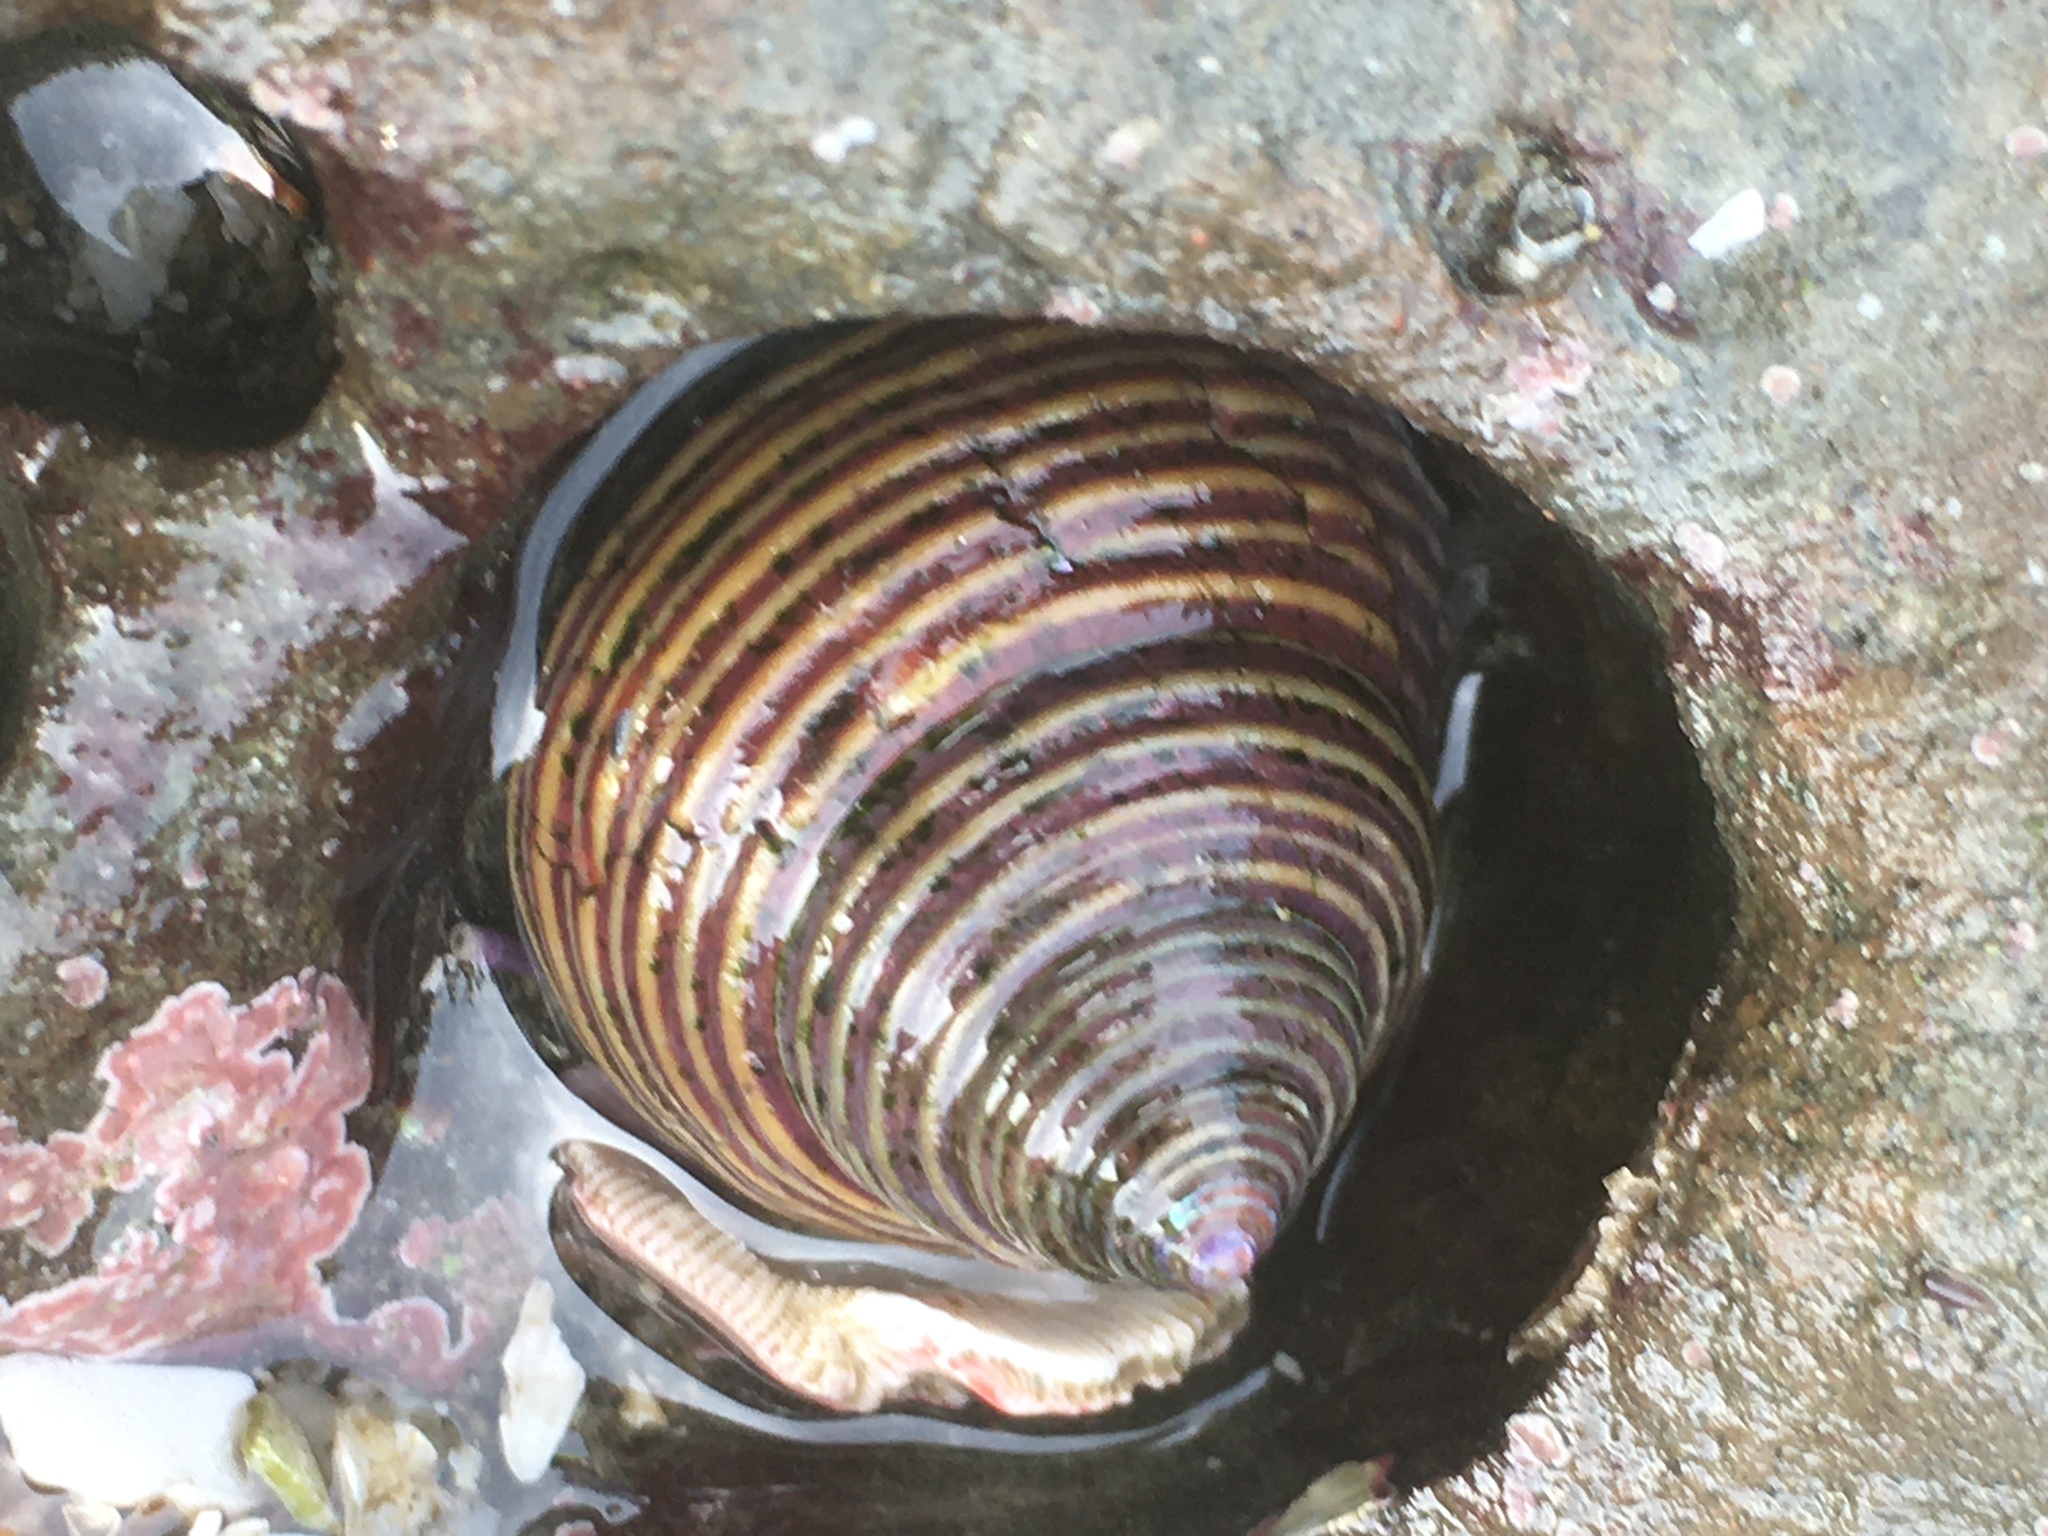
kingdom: Animalia
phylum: Mollusca
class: Gastropoda
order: Trochida
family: Calliostomatidae
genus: Calliostoma
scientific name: Calliostoma ligatum
